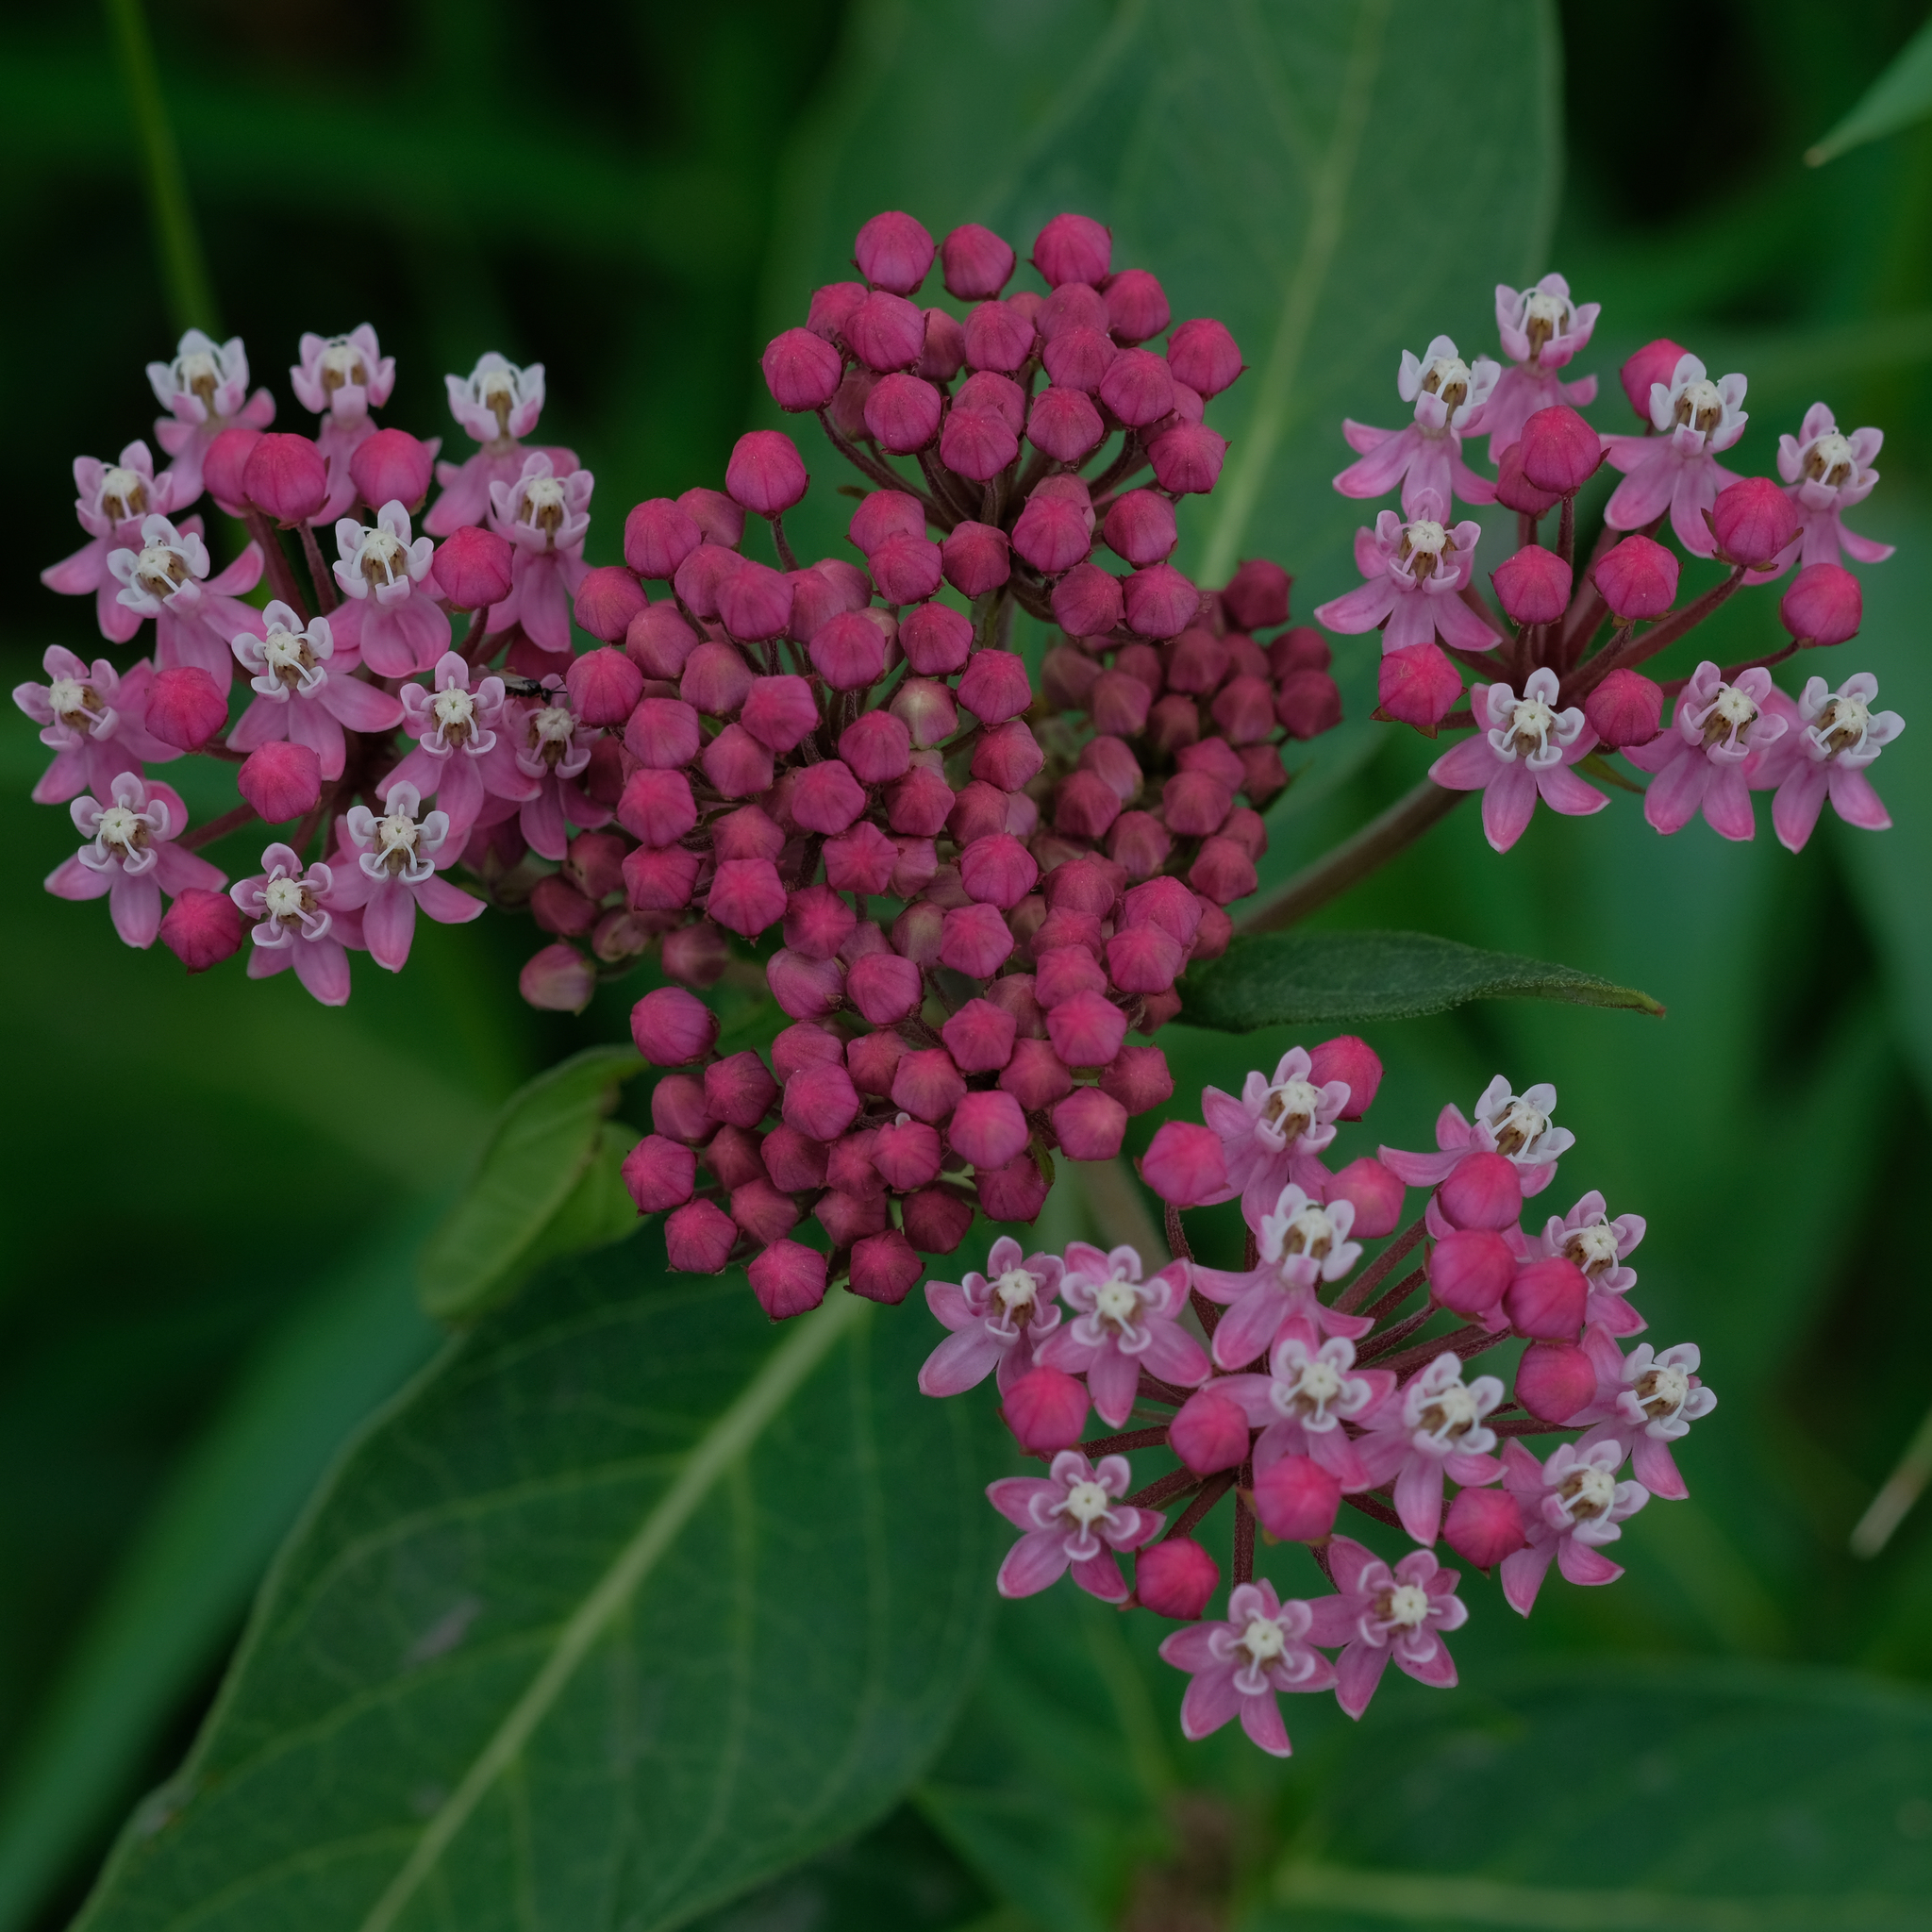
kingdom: Plantae
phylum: Tracheophyta
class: Magnoliopsida
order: Gentianales
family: Apocynaceae
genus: Asclepias
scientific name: Asclepias incarnata
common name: Swamp milkweed
